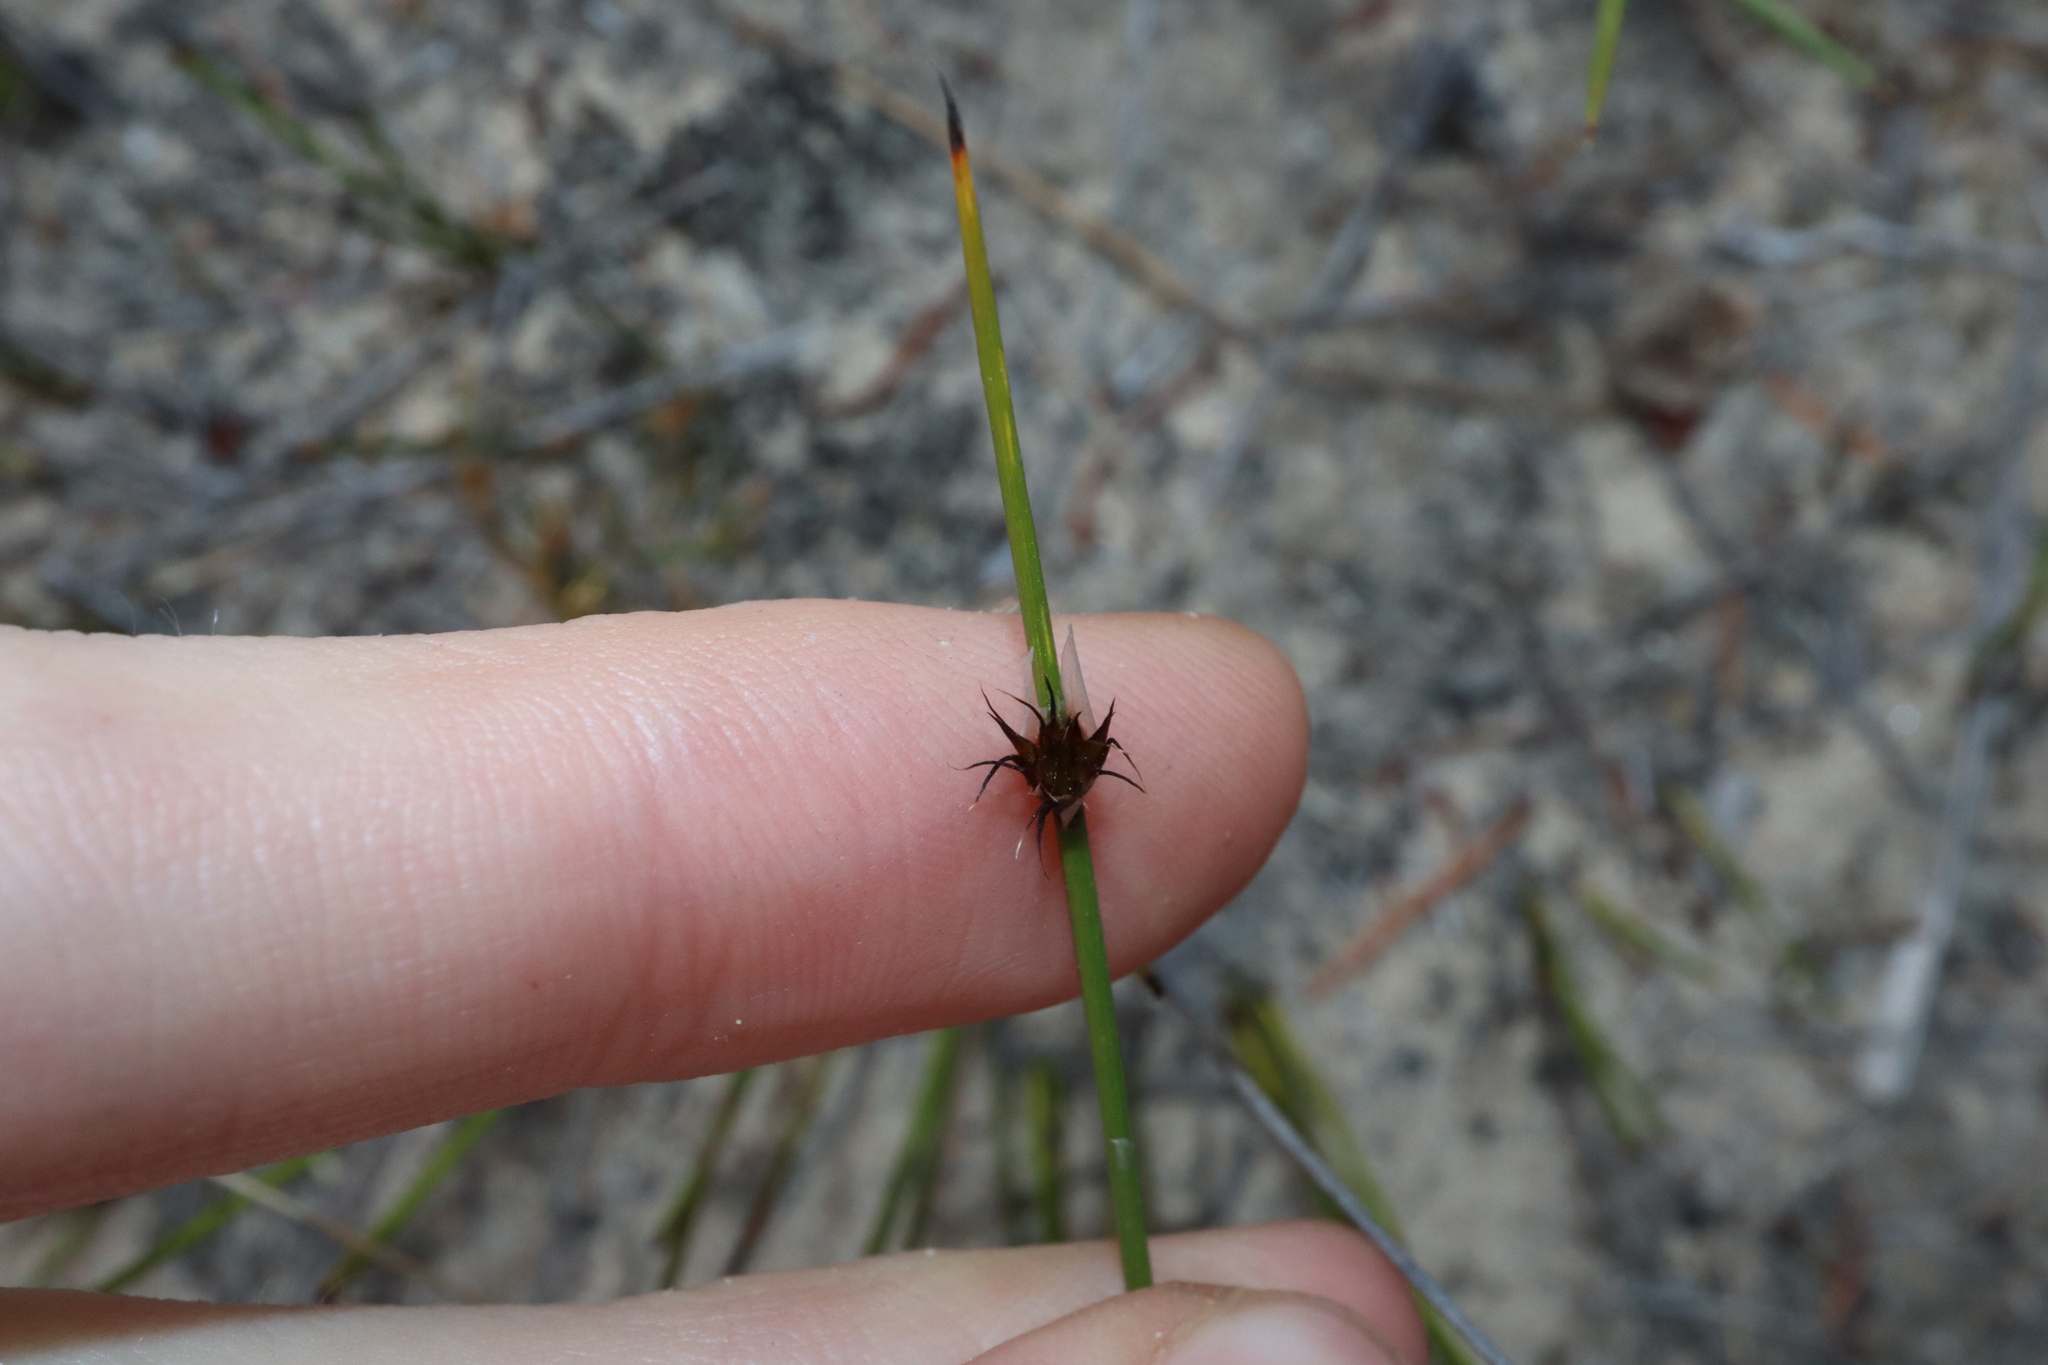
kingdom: Plantae
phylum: Tracheophyta
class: Liliopsida
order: Poales
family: Cyperaceae
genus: Mesomelaena
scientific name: Mesomelaena stygia
